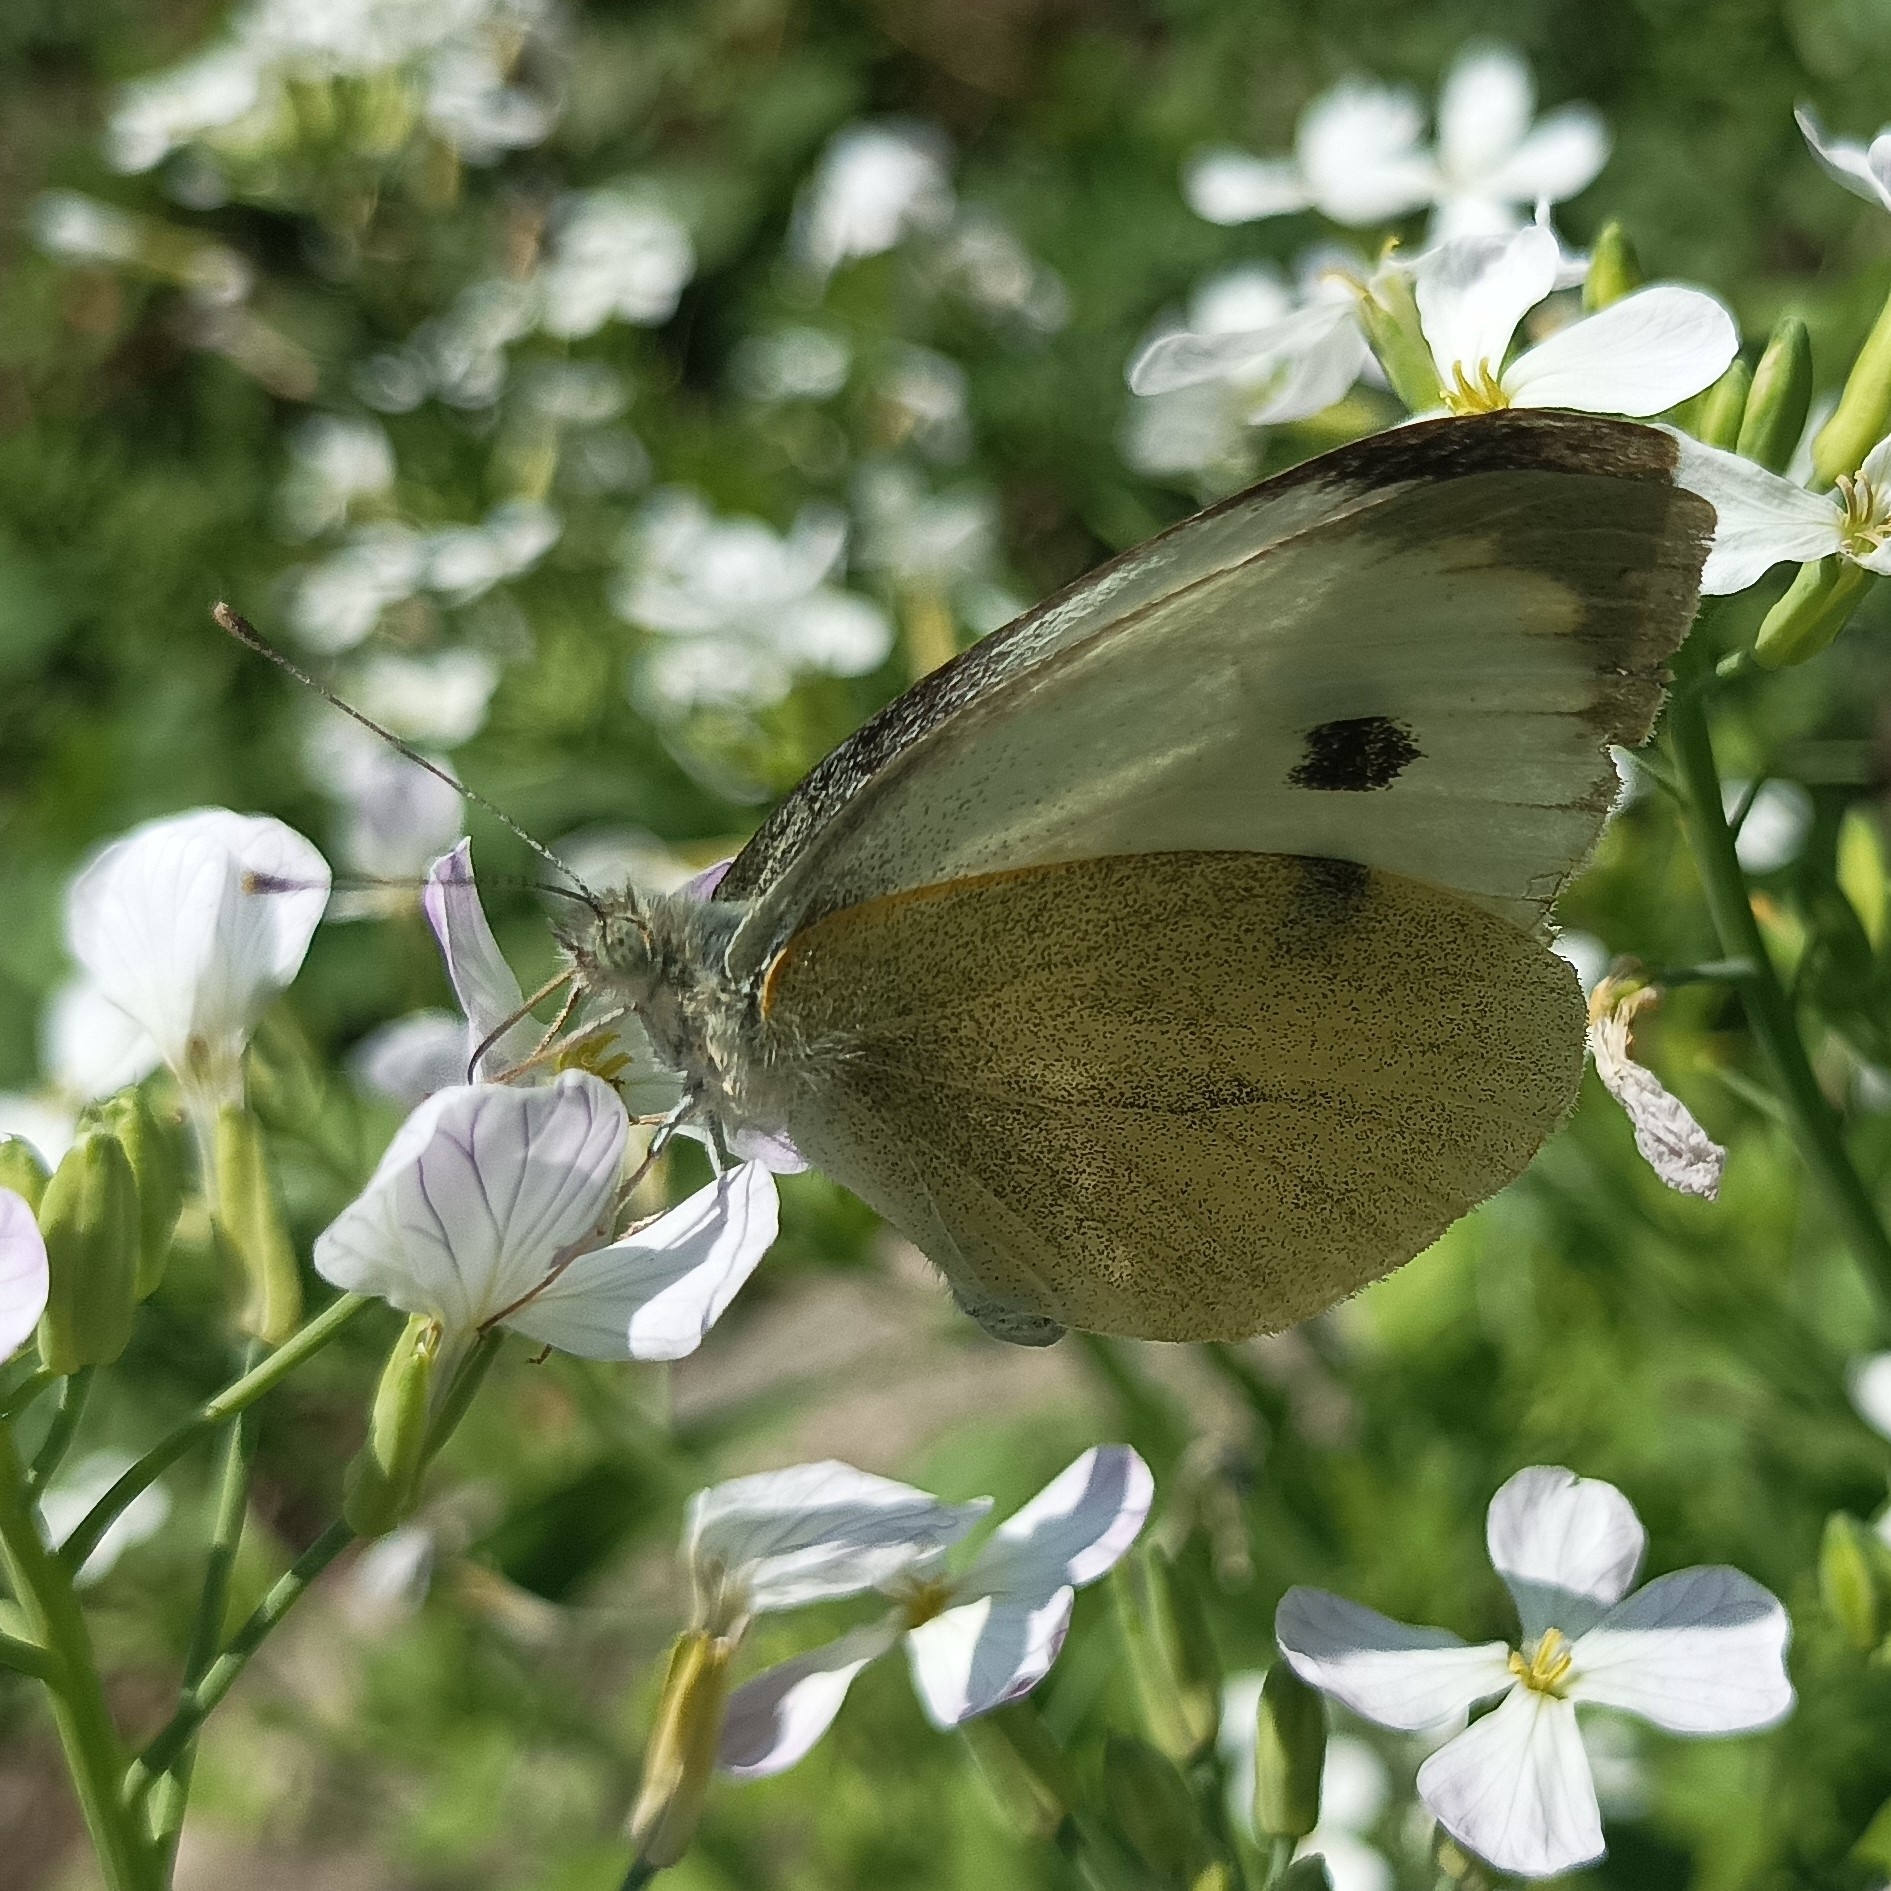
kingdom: Animalia
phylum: Arthropoda
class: Insecta
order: Lepidoptera
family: Pieridae
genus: Pieris
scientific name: Pieris brassicae
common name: Large white
